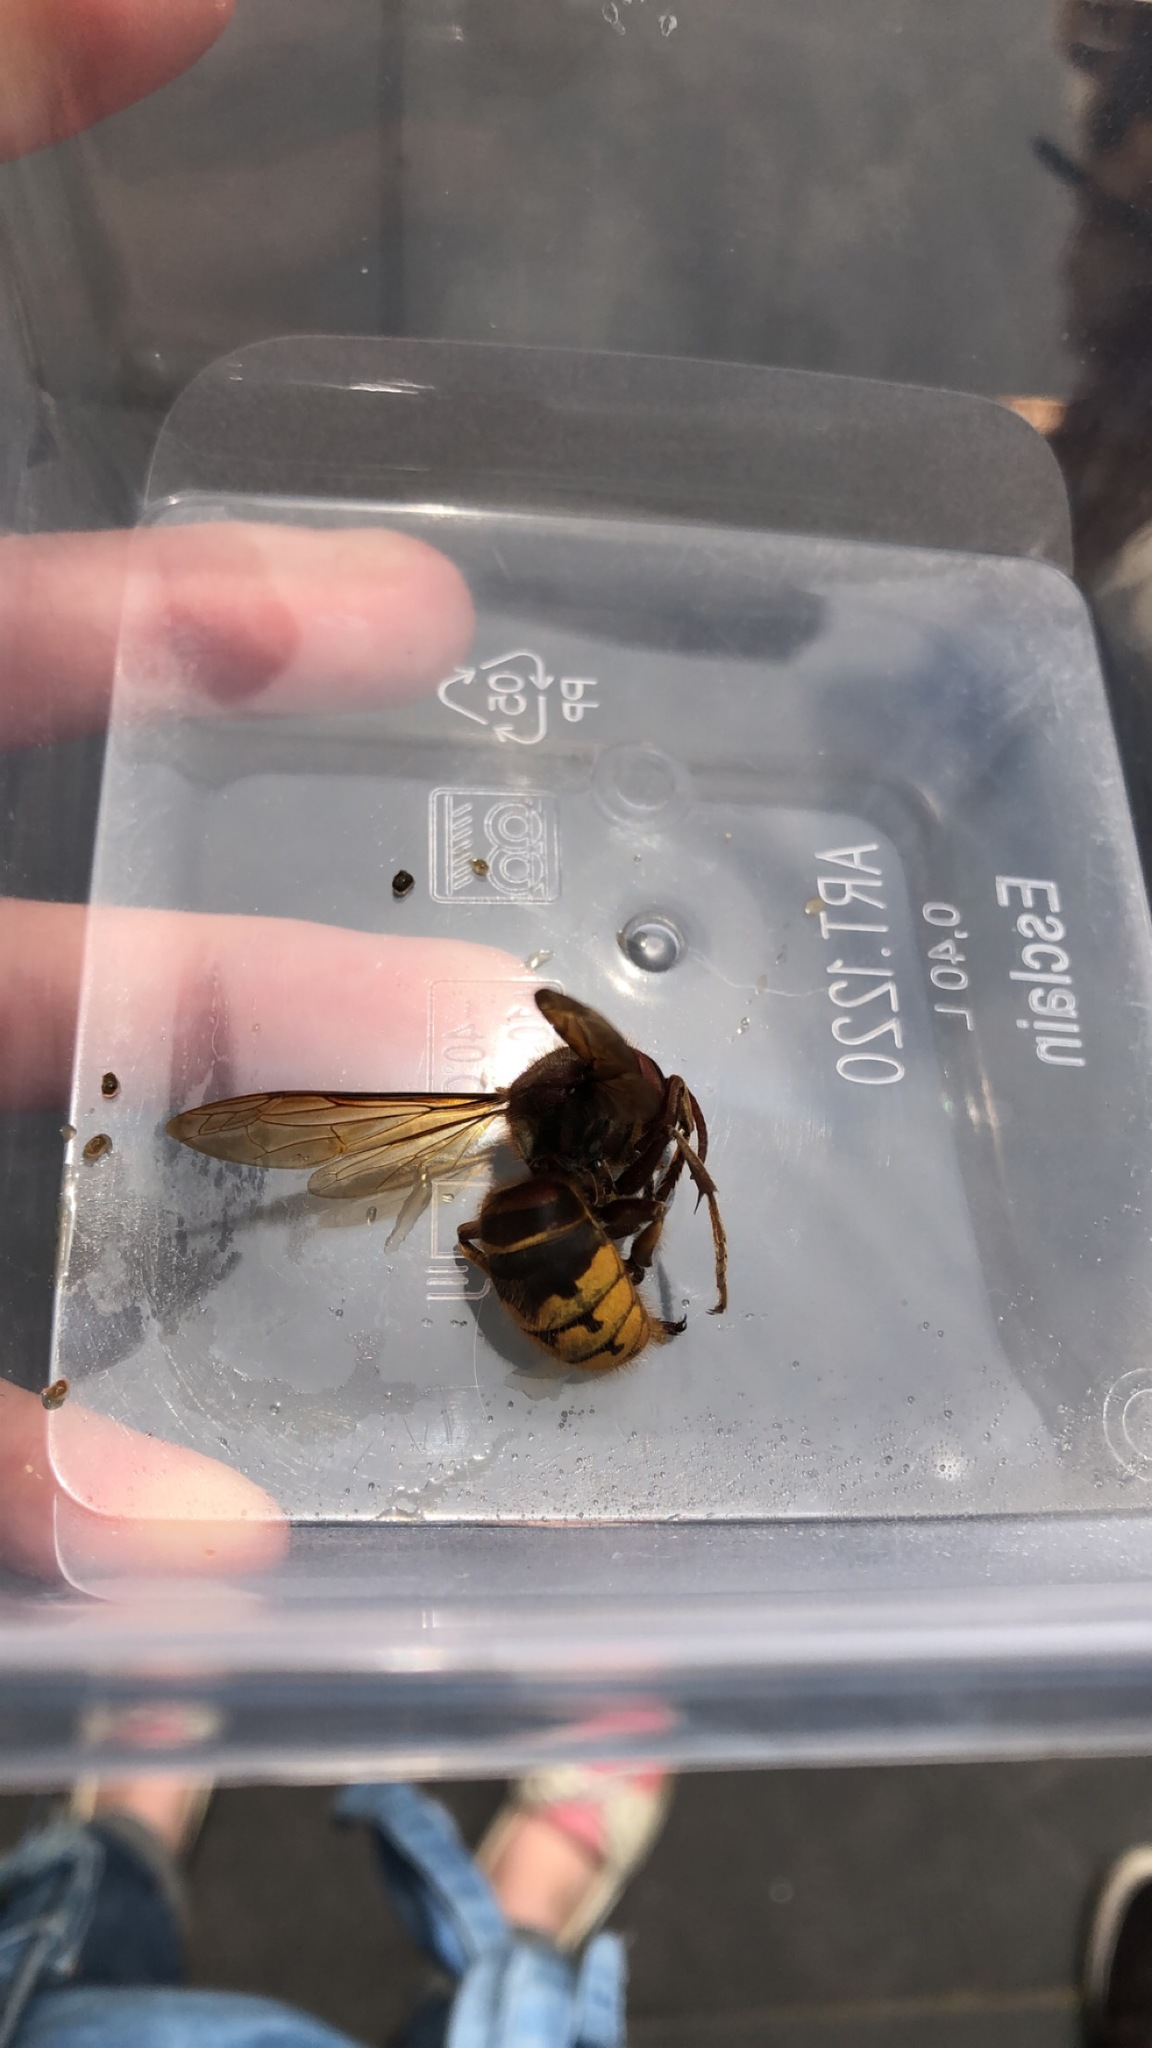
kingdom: Animalia
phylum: Arthropoda
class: Insecta
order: Hymenoptera
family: Vespidae
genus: Vespa
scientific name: Vespa crabro
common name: Hornet
